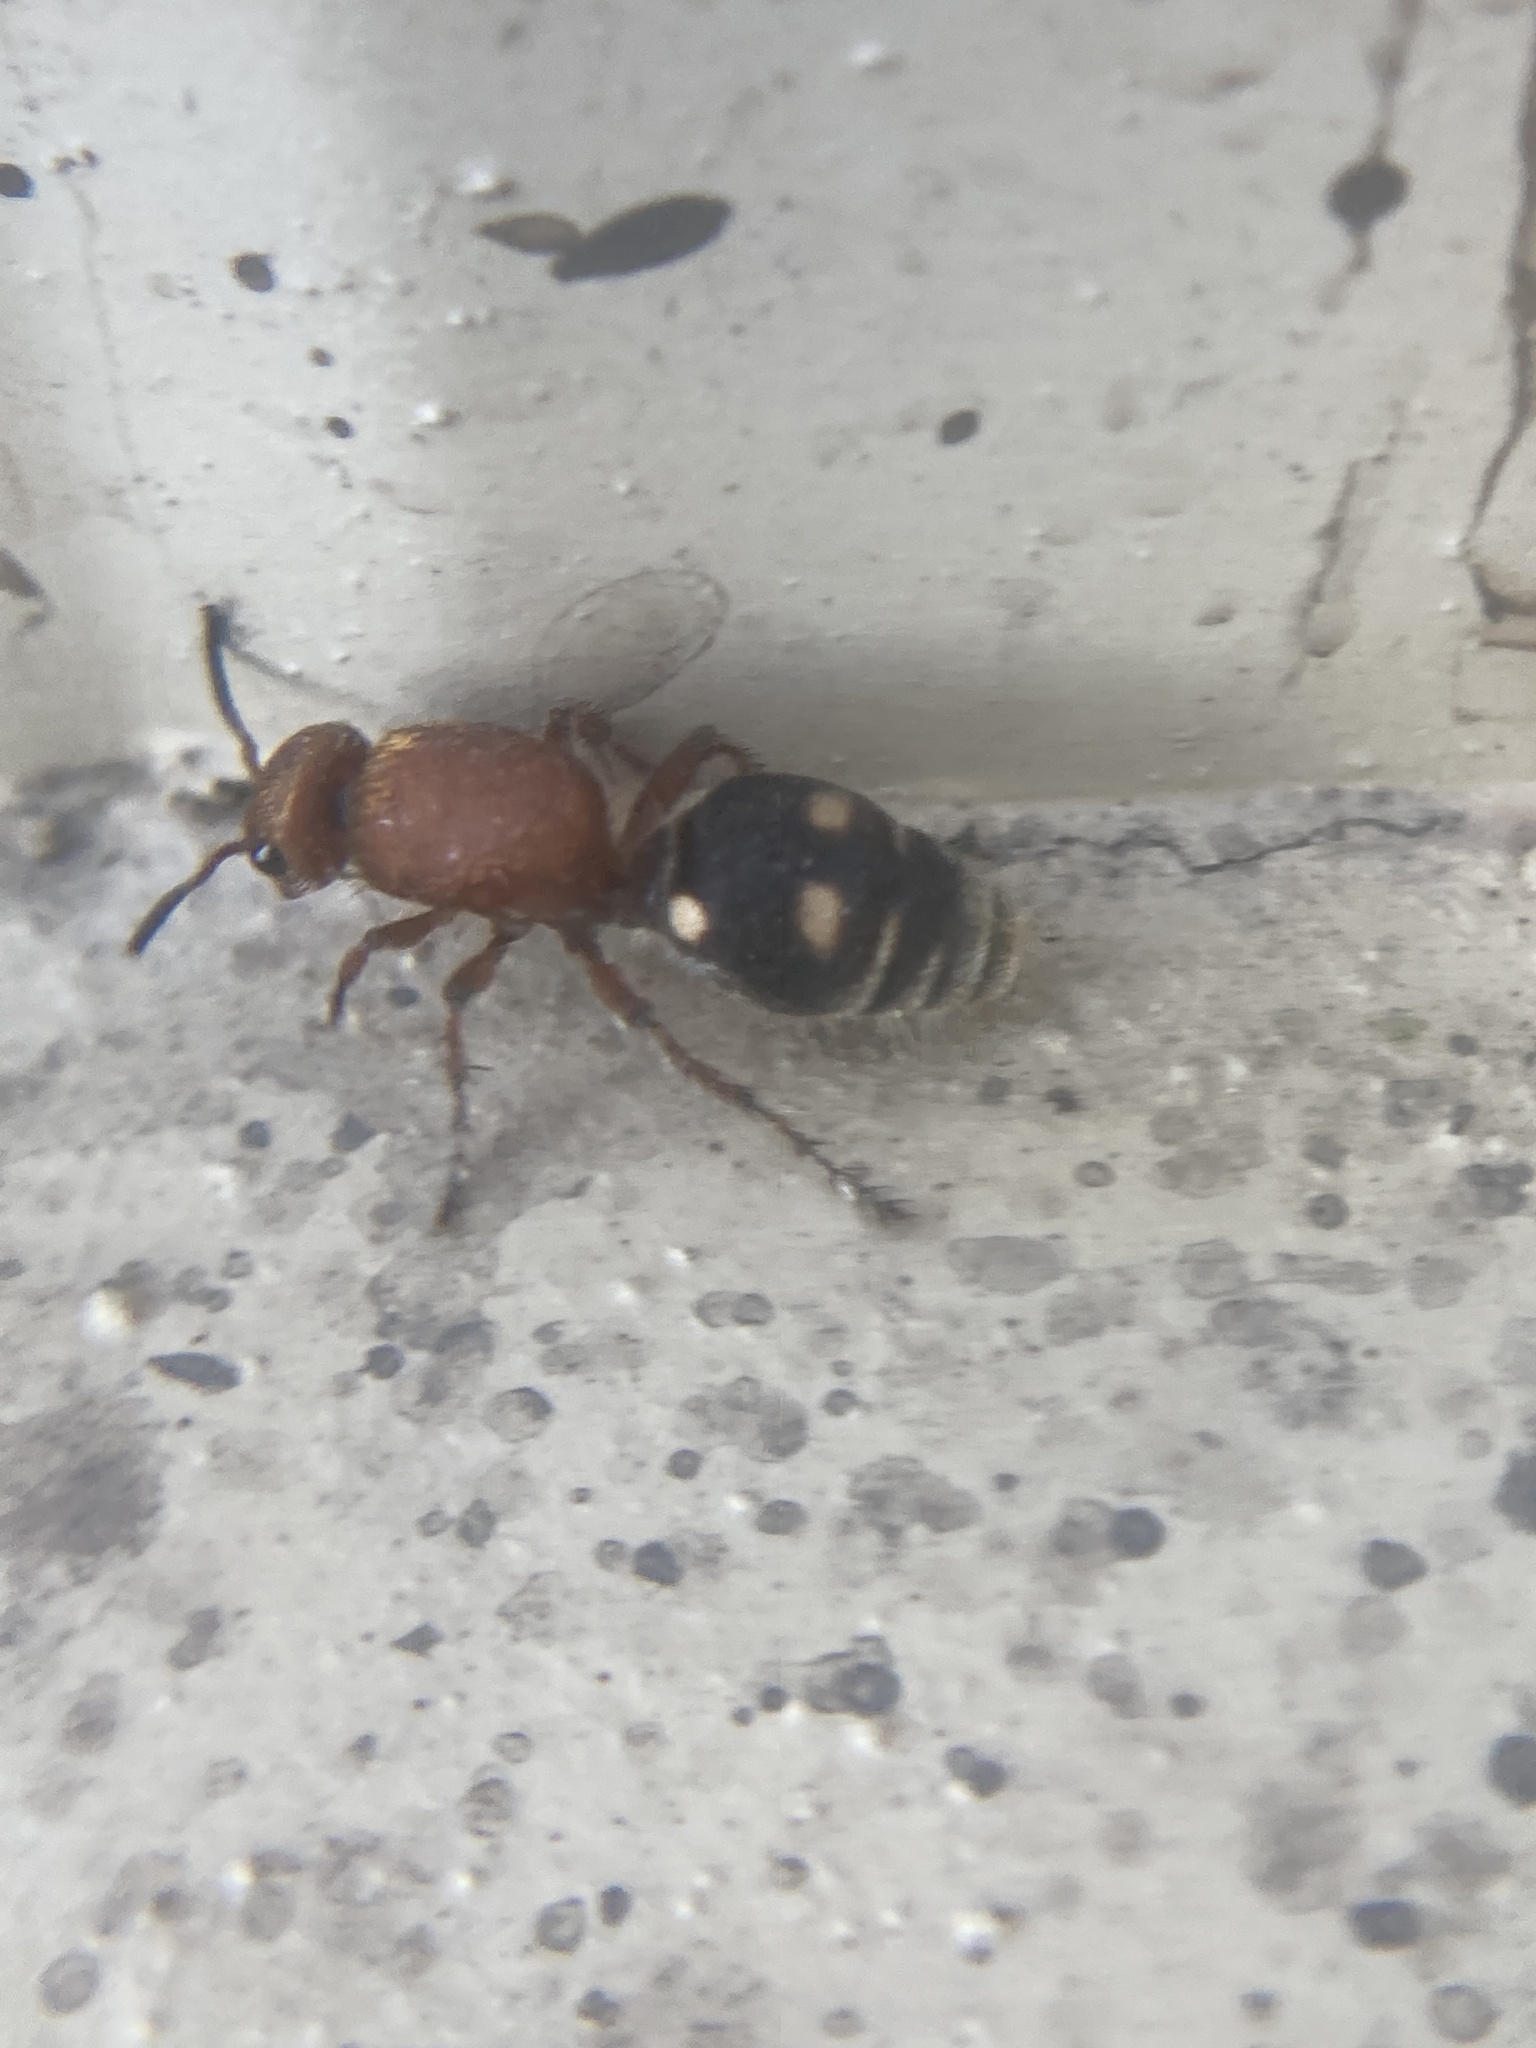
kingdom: Animalia
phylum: Arthropoda
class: Insecta
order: Hymenoptera
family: Mutillidae
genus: Dasymutilla
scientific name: Dasymutilla
